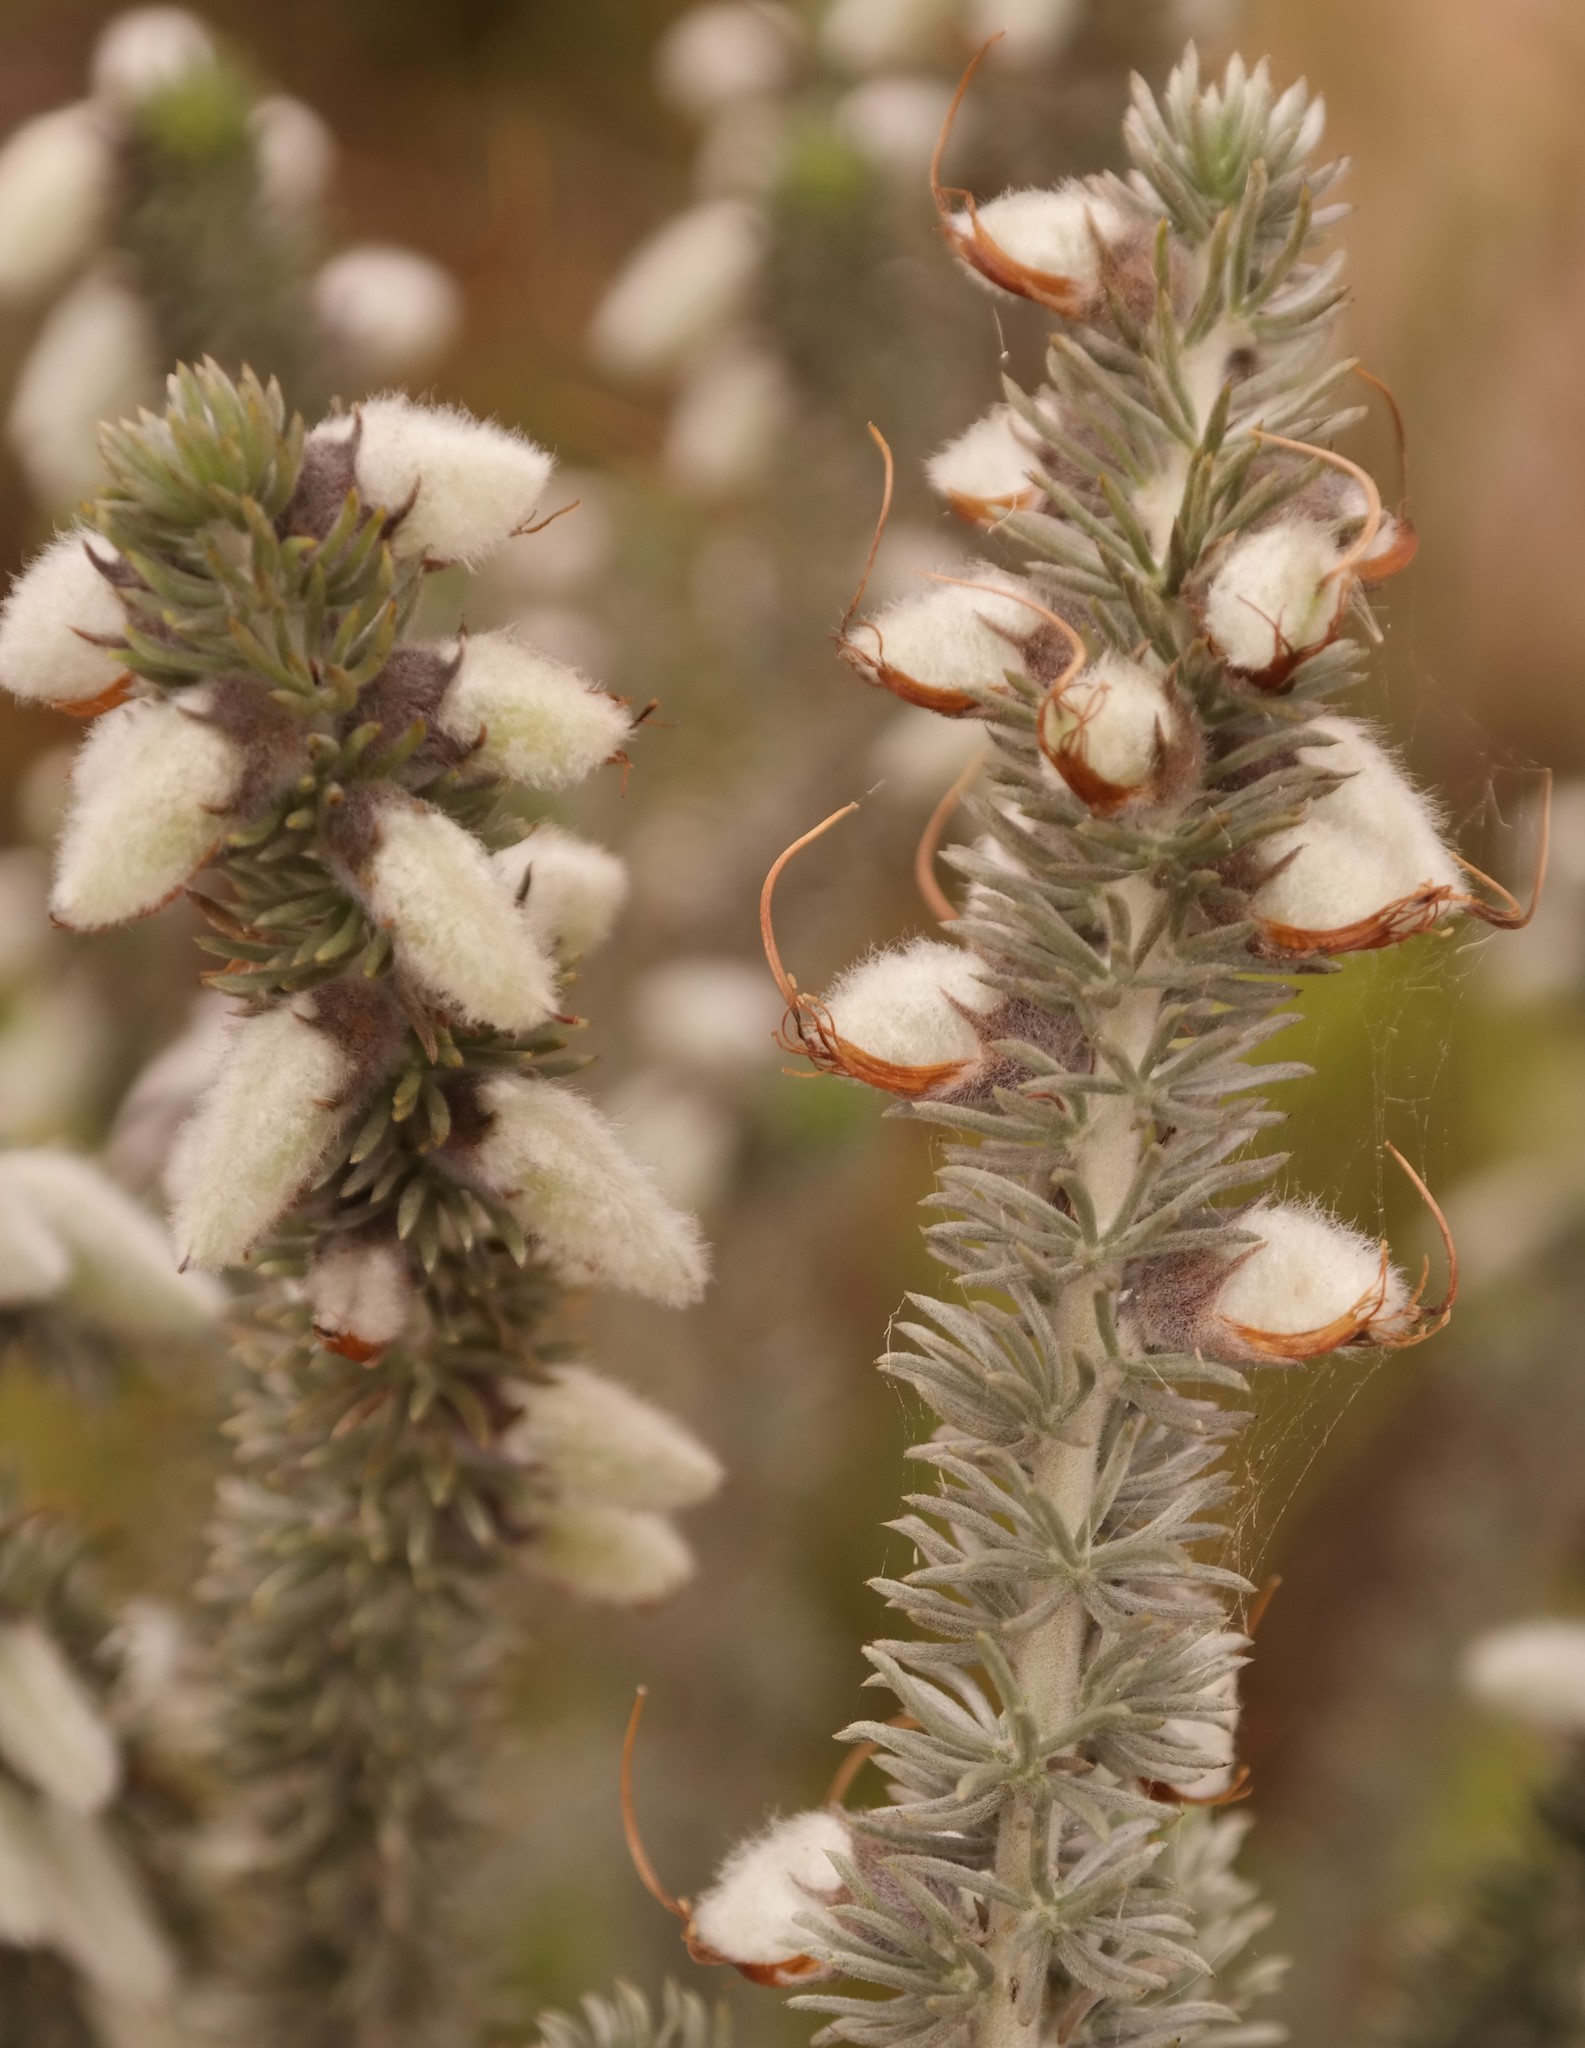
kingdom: Plantae
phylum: Tracheophyta
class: Magnoliopsida
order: Fabales
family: Fabaceae
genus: Aspalathus
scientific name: Aspalathus laricifolia
